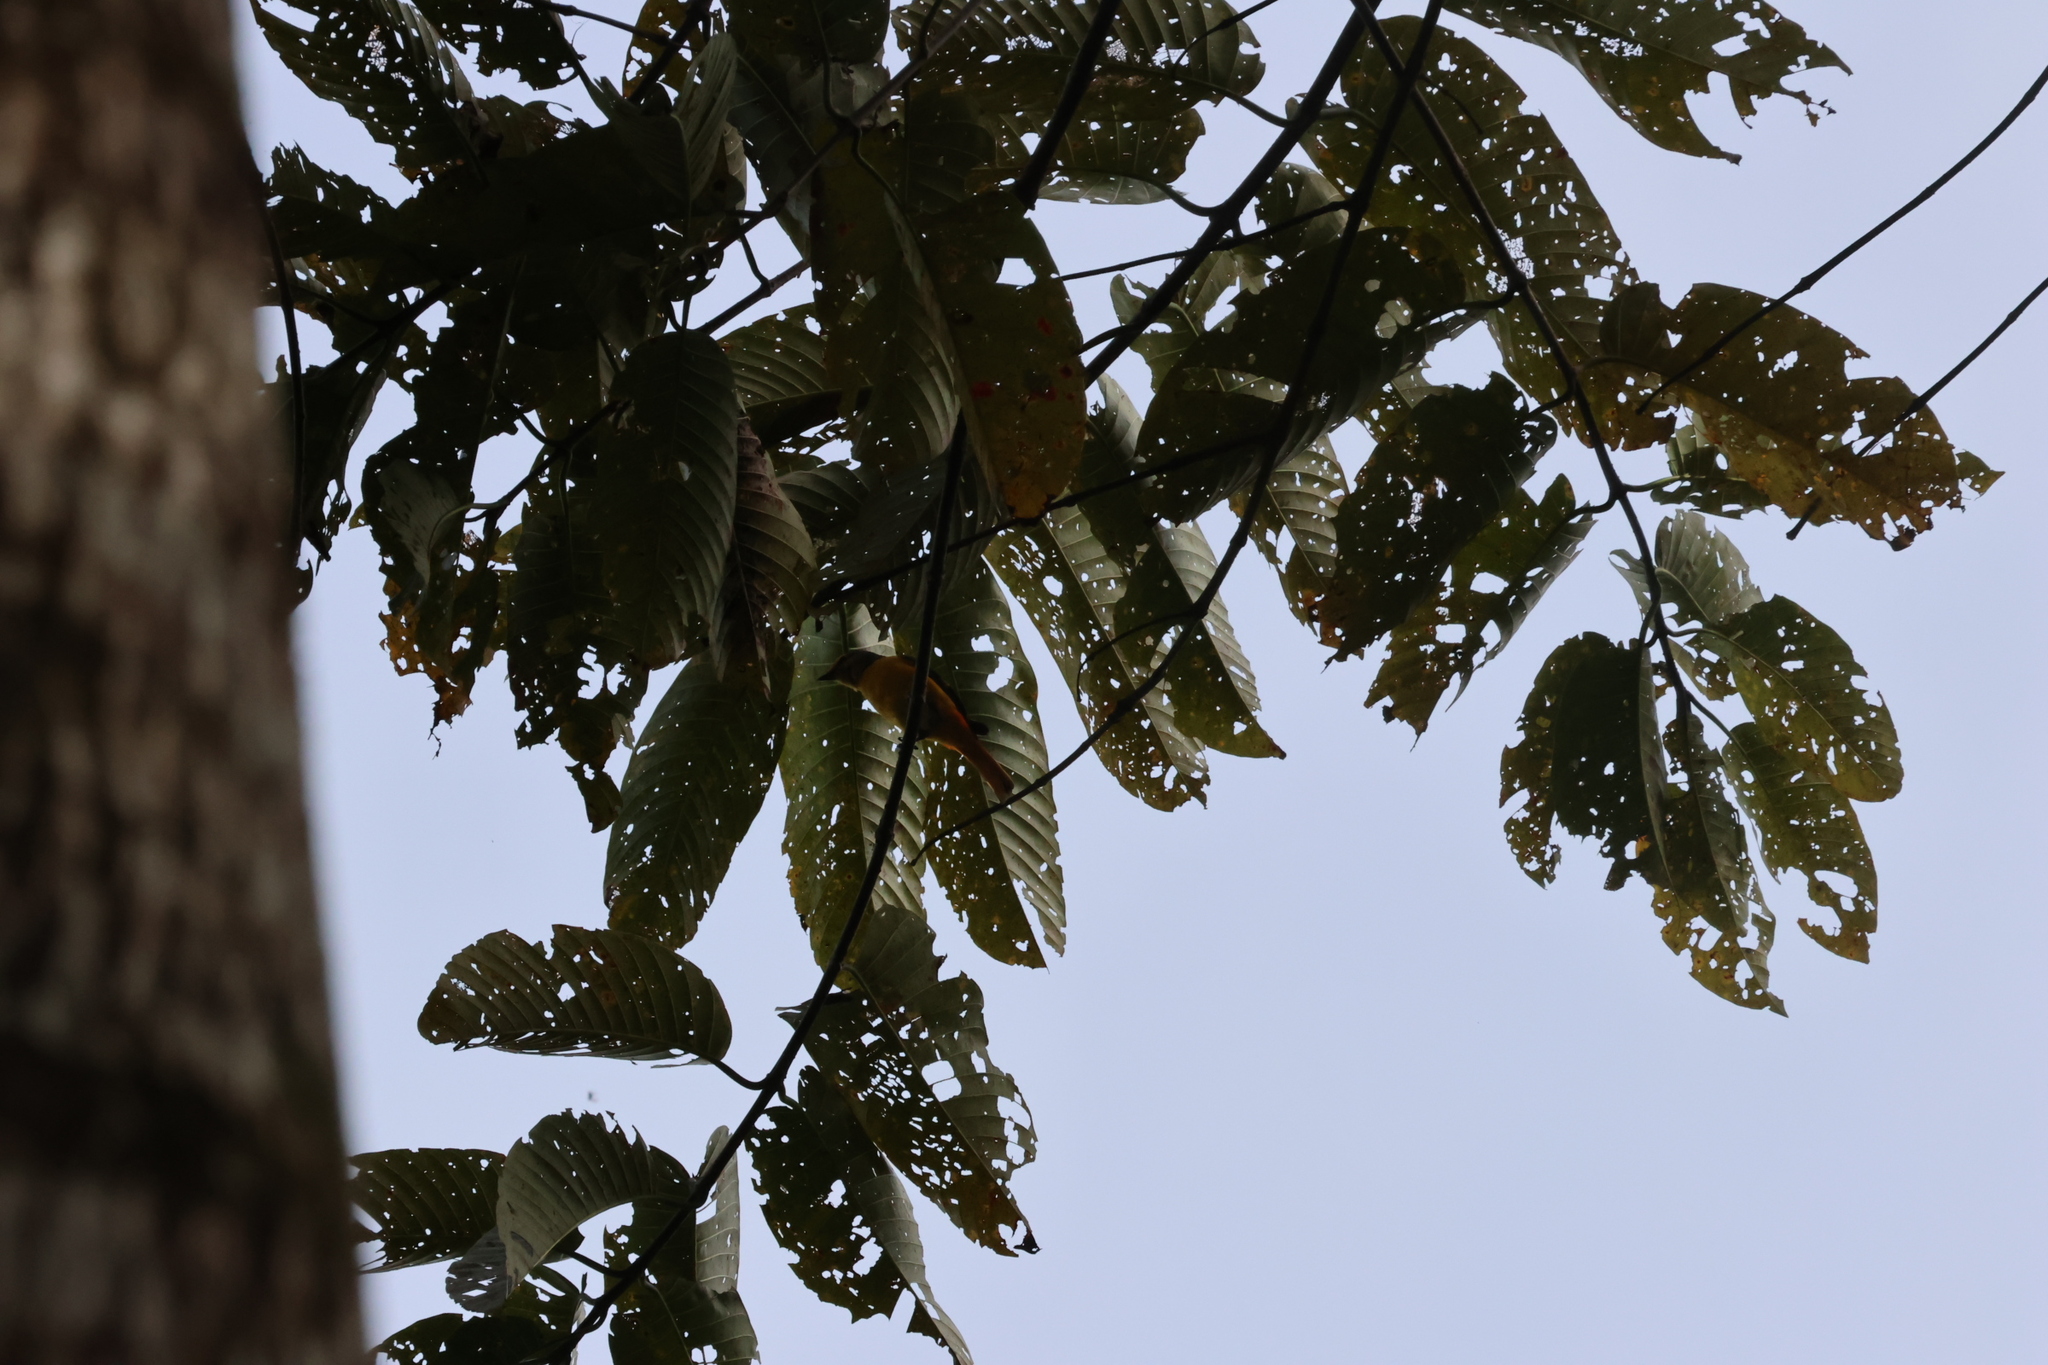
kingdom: Animalia
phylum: Chordata
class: Aves
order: Passeriformes
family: Campephagidae
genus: Pericrocotus
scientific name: Pericrocotus igneus
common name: Fiery minivet
